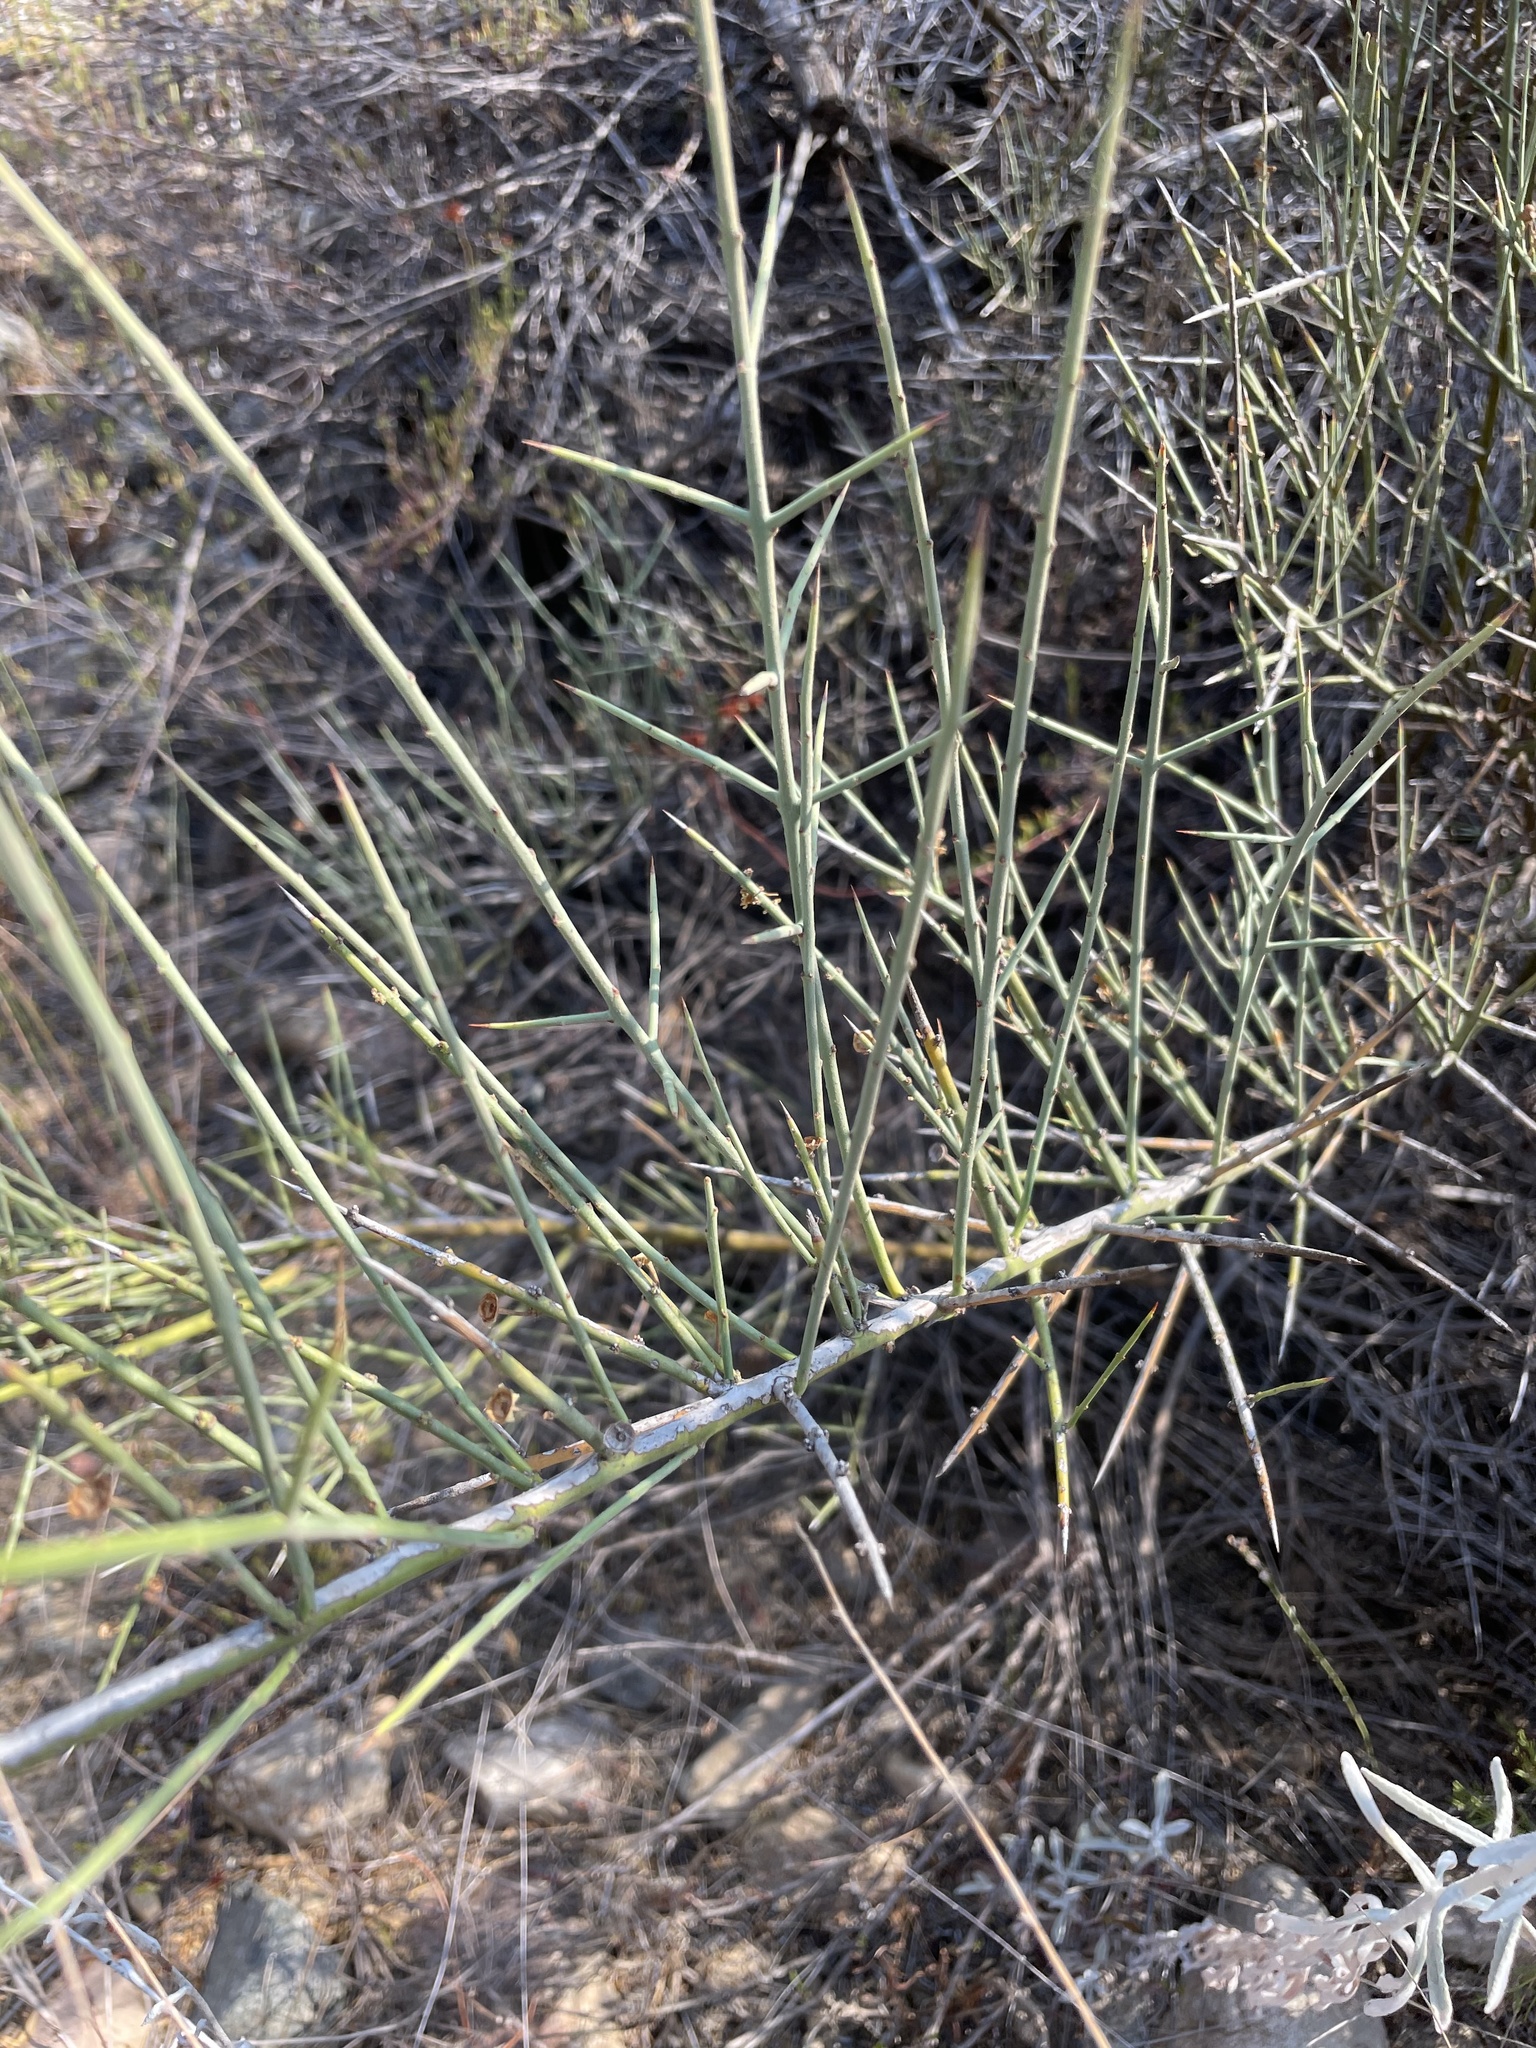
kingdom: Plantae
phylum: Tracheophyta
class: Magnoliopsida
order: Rosales
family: Rhamnaceae
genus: Adolphia
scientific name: Adolphia californica
